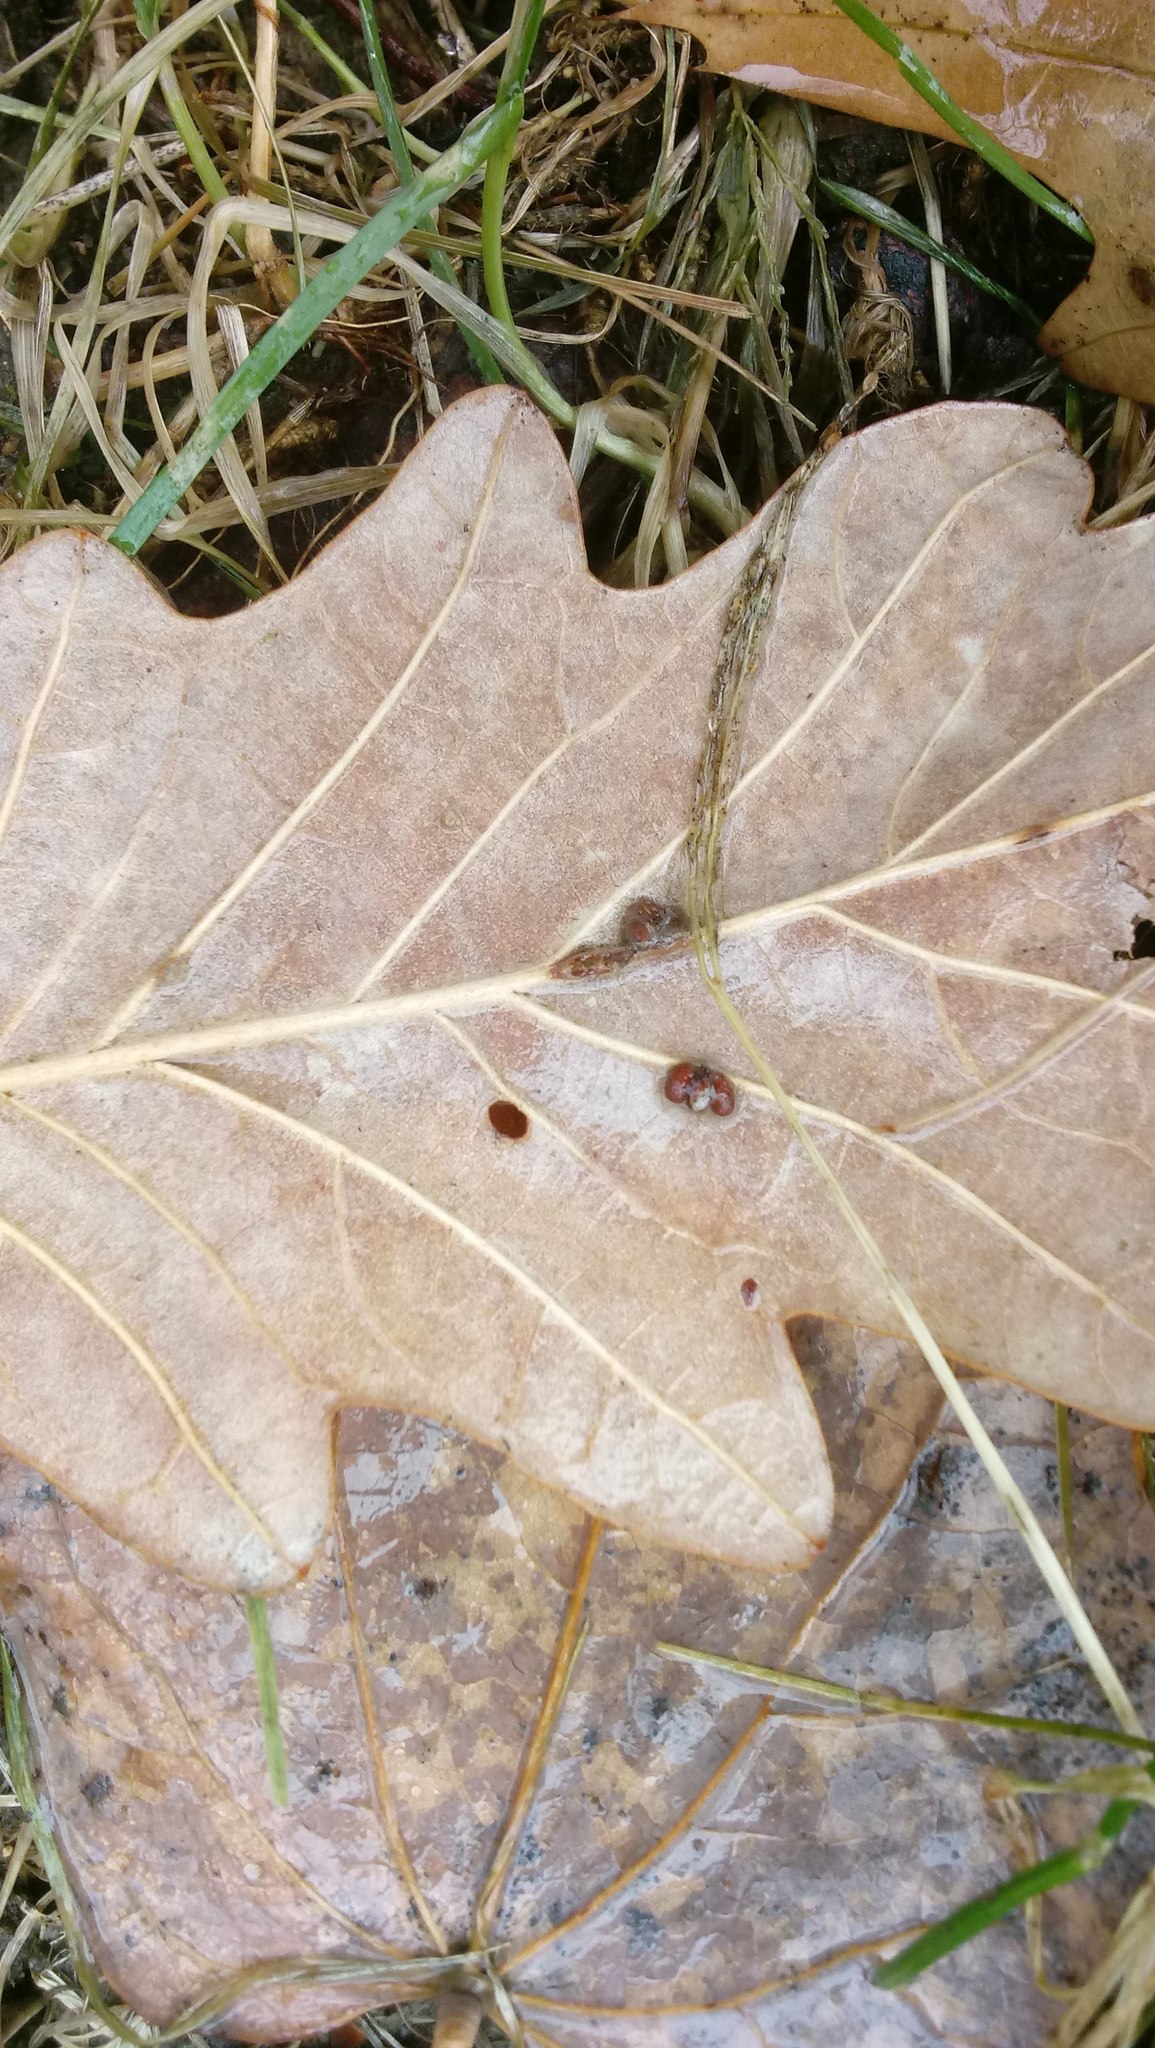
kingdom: Animalia
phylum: Arthropoda
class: Insecta
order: Hymenoptera
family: Cynipidae
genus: Andricus
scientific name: Andricus Druon ignotum
